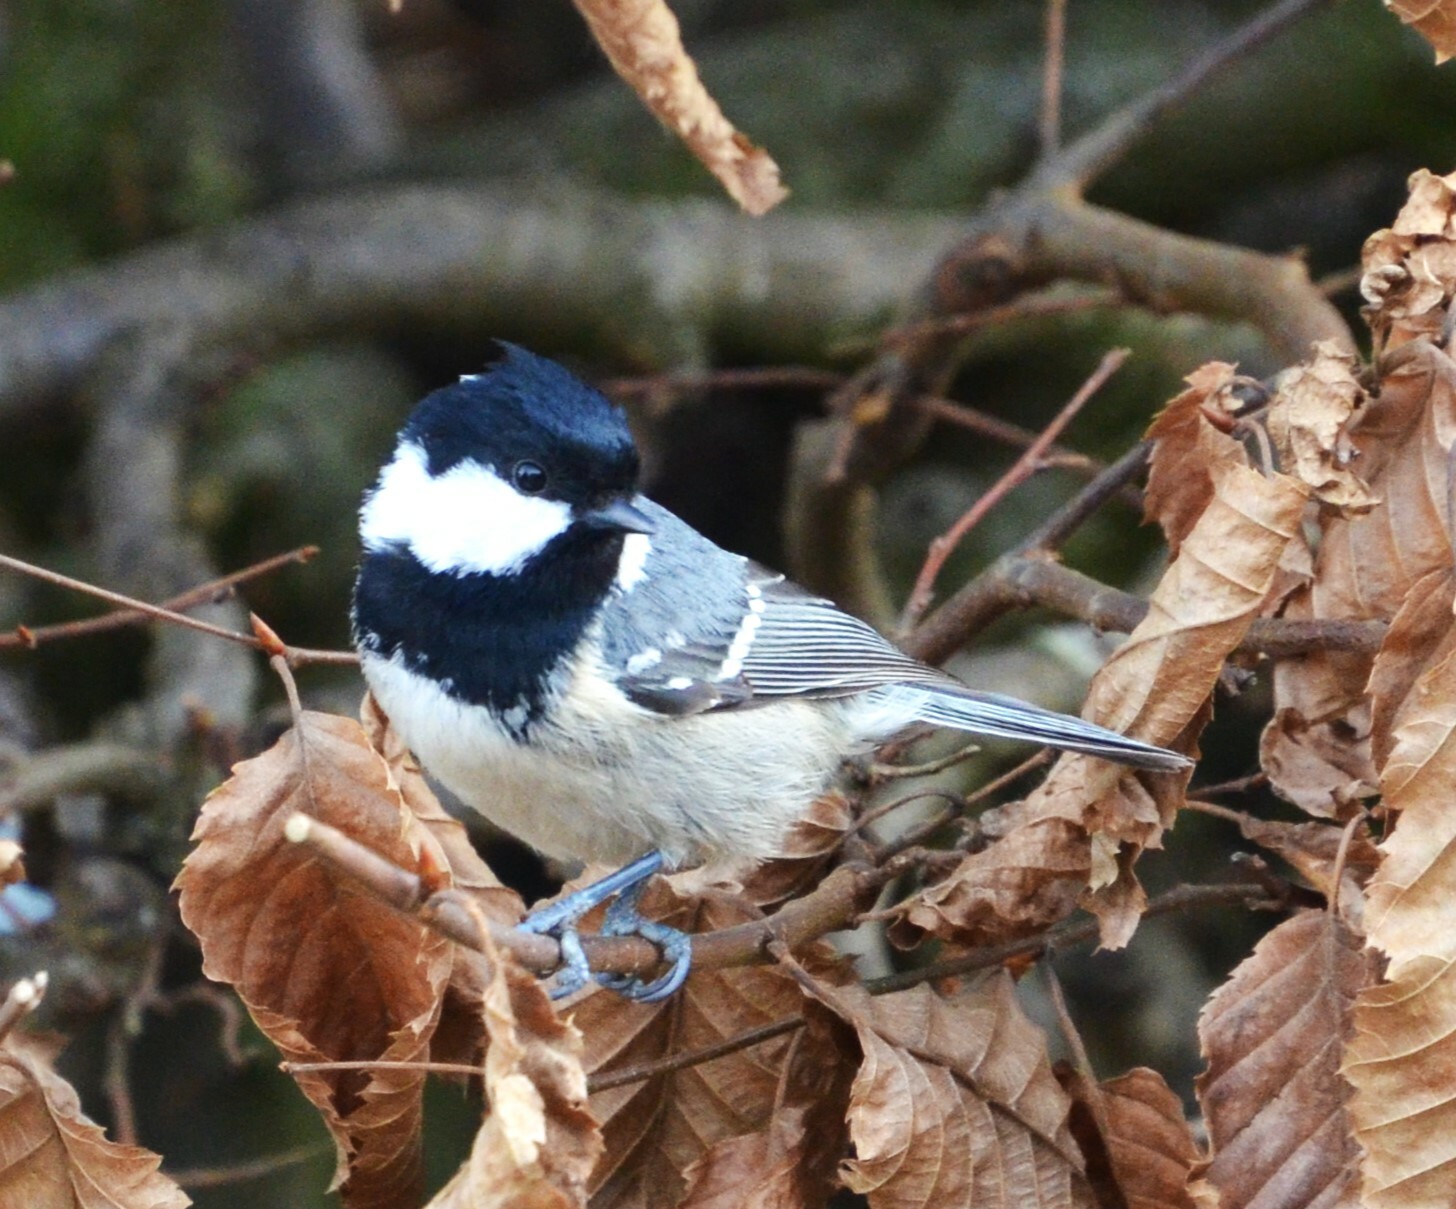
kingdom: Animalia
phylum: Chordata
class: Aves
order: Passeriformes
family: Paridae
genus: Periparus
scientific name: Periparus ater
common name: Coal tit
